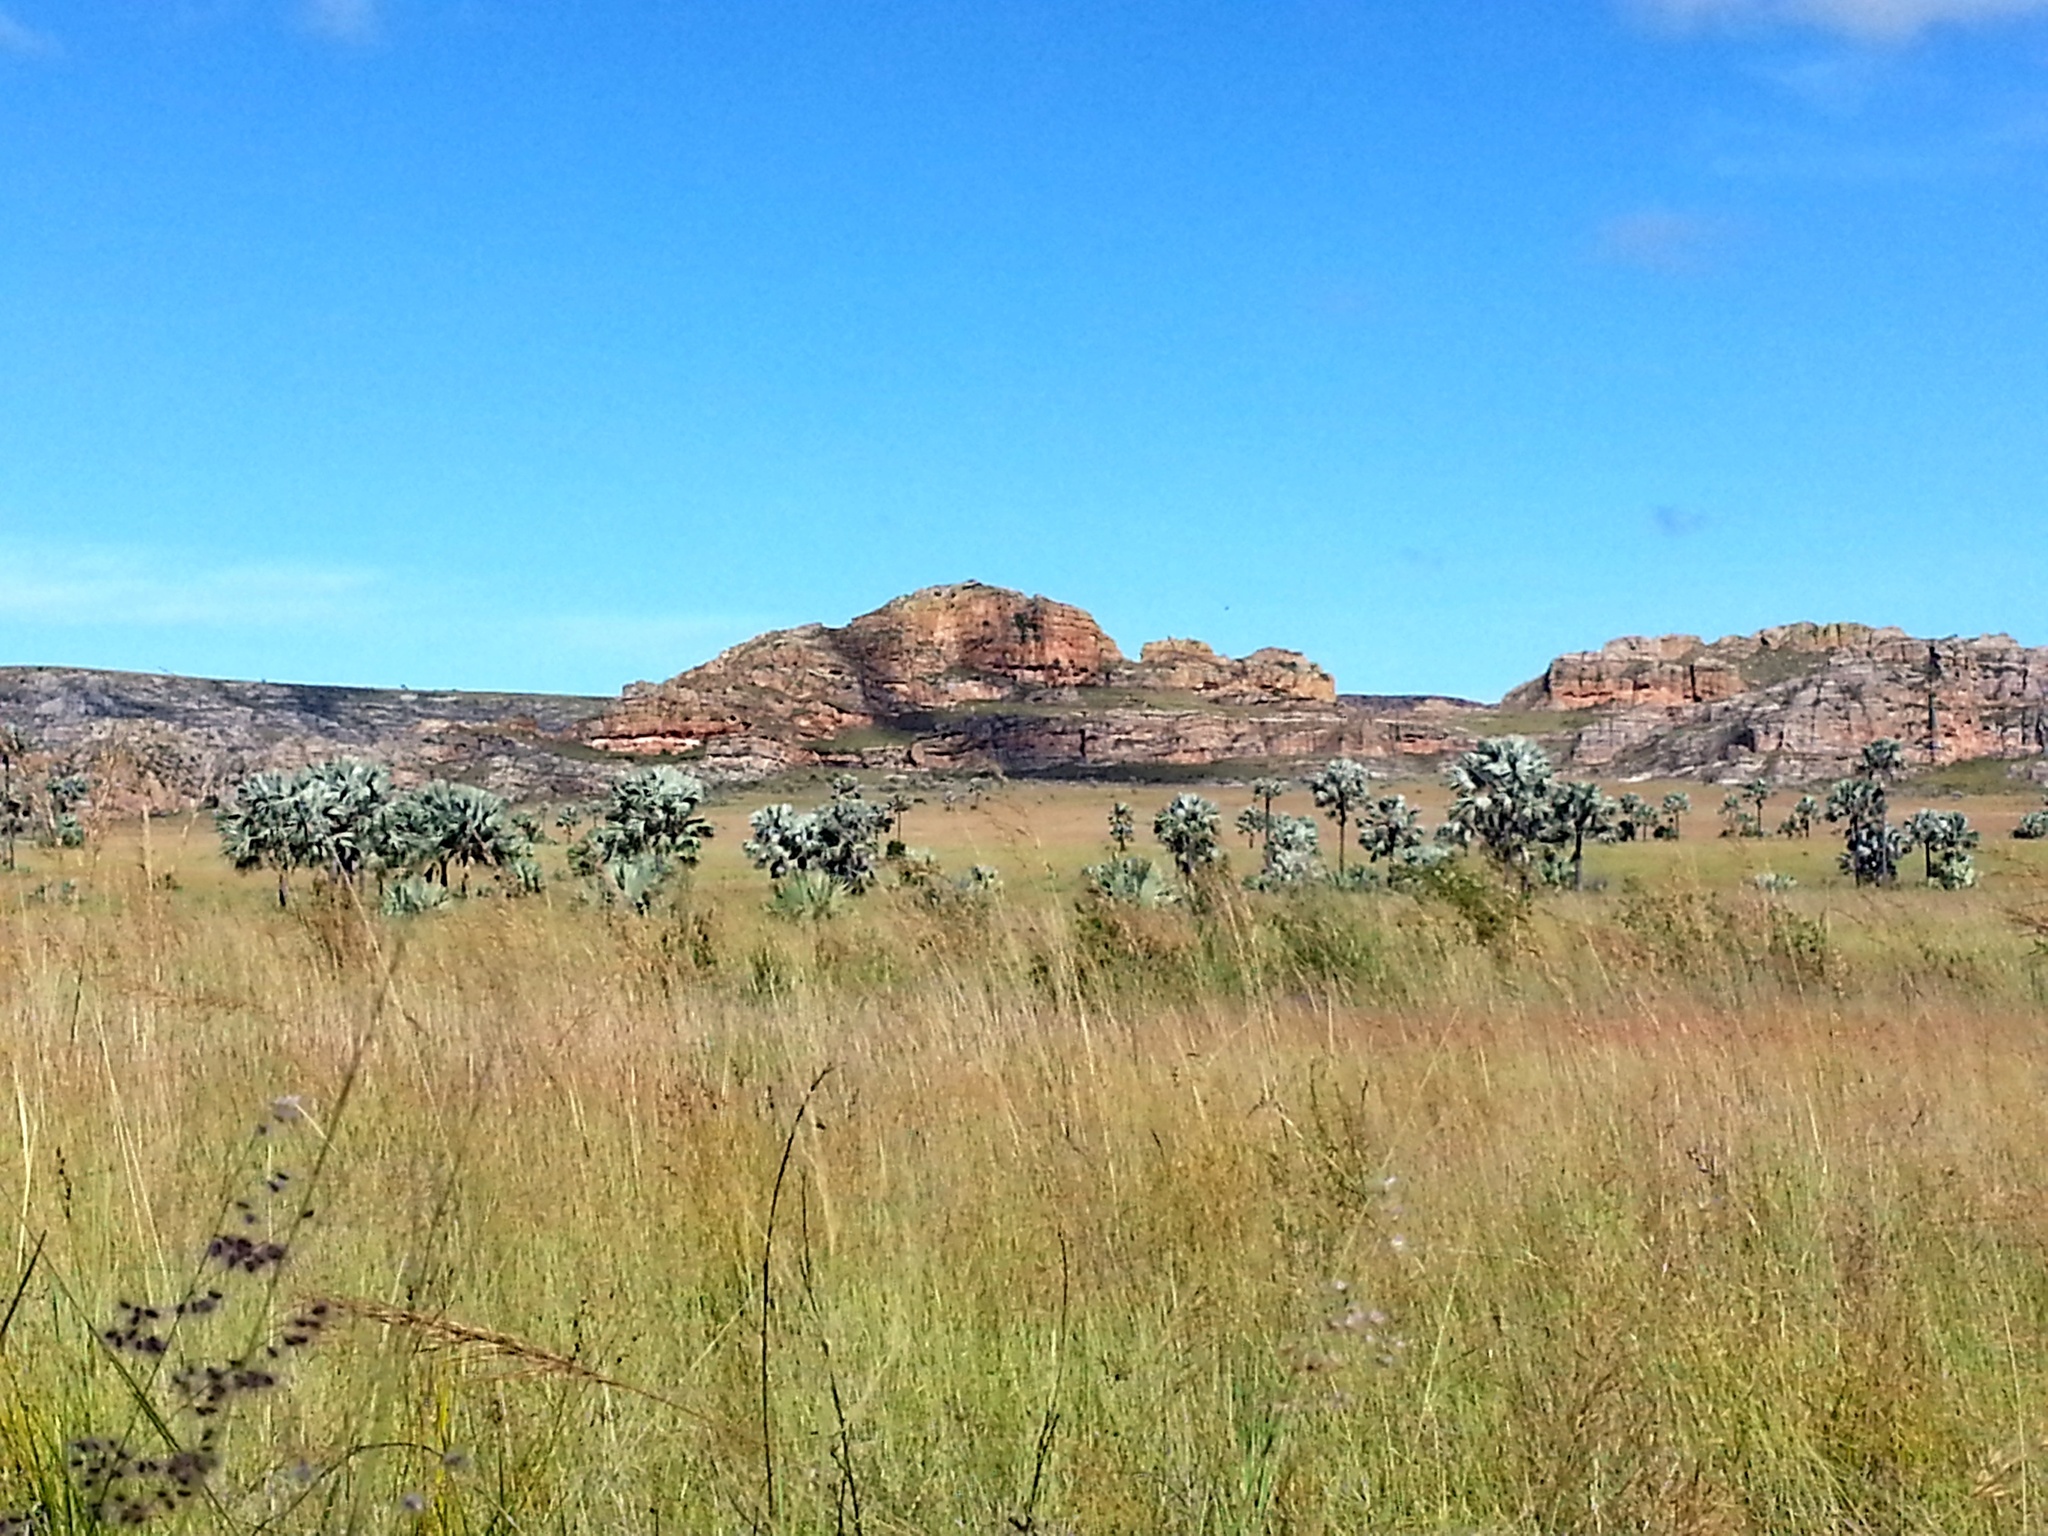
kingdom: Plantae
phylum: Tracheophyta
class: Liliopsida
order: Arecales
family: Arecaceae
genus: Bismarckia
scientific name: Bismarckia nobilis
